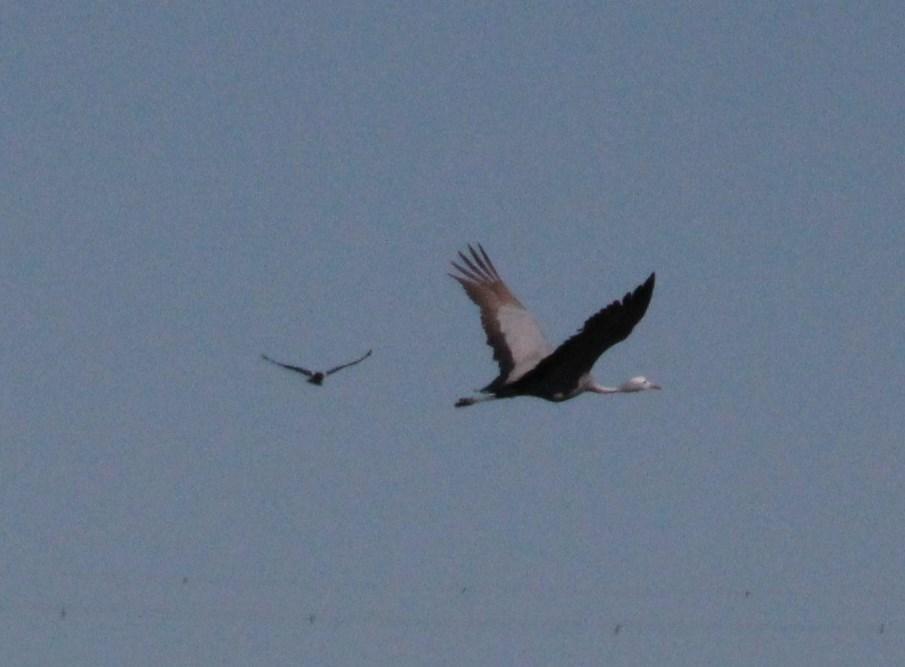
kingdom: Animalia
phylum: Chordata
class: Aves
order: Gruiformes
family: Gruidae
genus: Anthropoides
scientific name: Anthropoides paradiseus
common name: Blue crane
